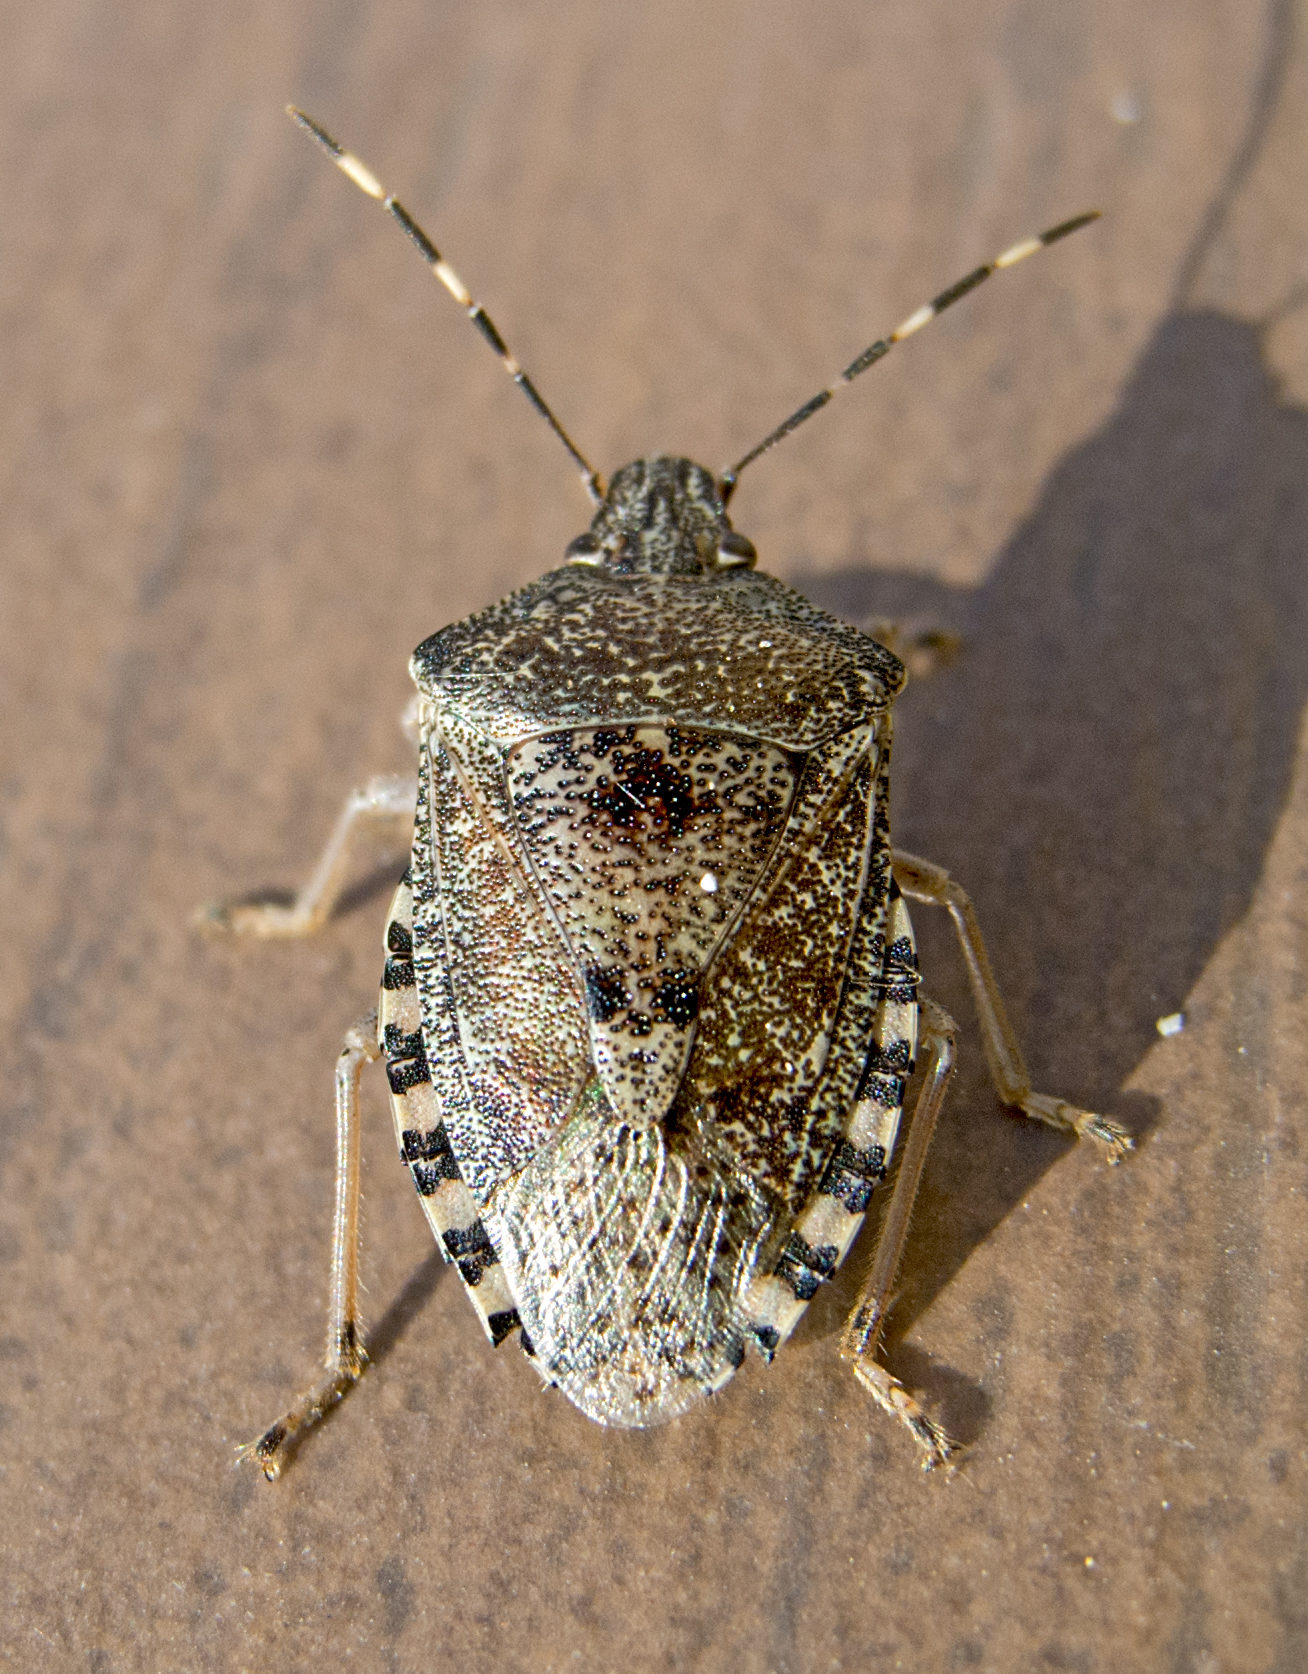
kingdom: Animalia
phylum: Arthropoda
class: Insecta
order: Hemiptera
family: Pentatomidae
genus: Rhaphigaster
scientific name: Rhaphigaster nebulosa
